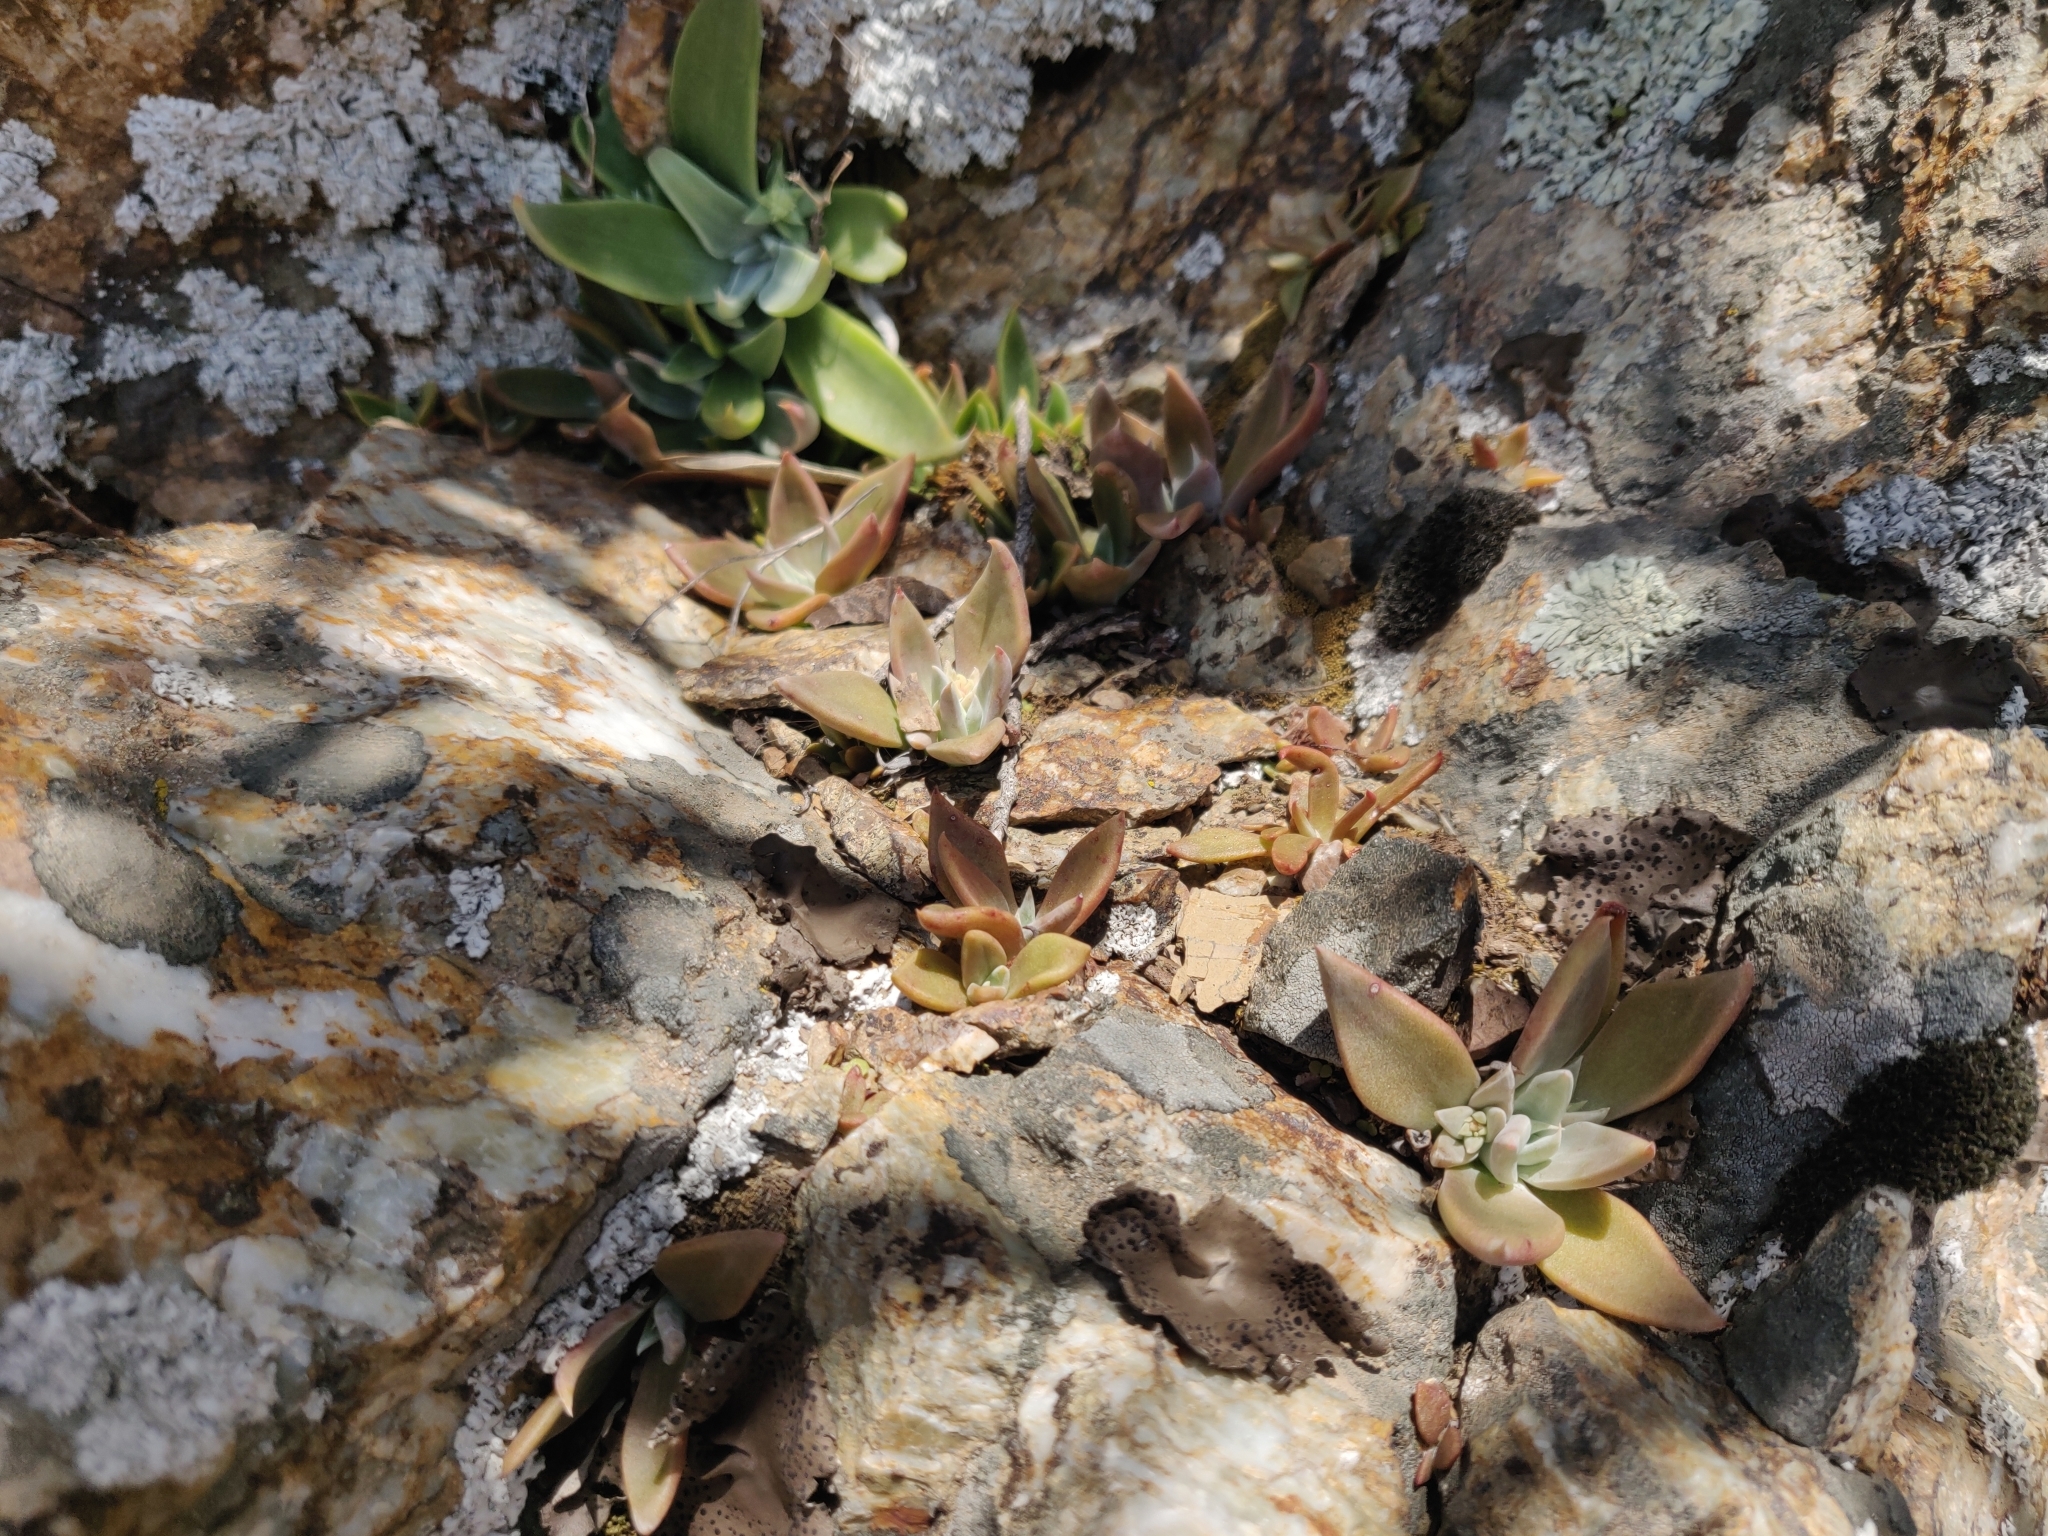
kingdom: Plantae
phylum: Tracheophyta
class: Magnoliopsida
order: Saxifragales
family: Crassulaceae
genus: Dudleya
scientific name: Dudleya cymosa
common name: Canyon dudleya
